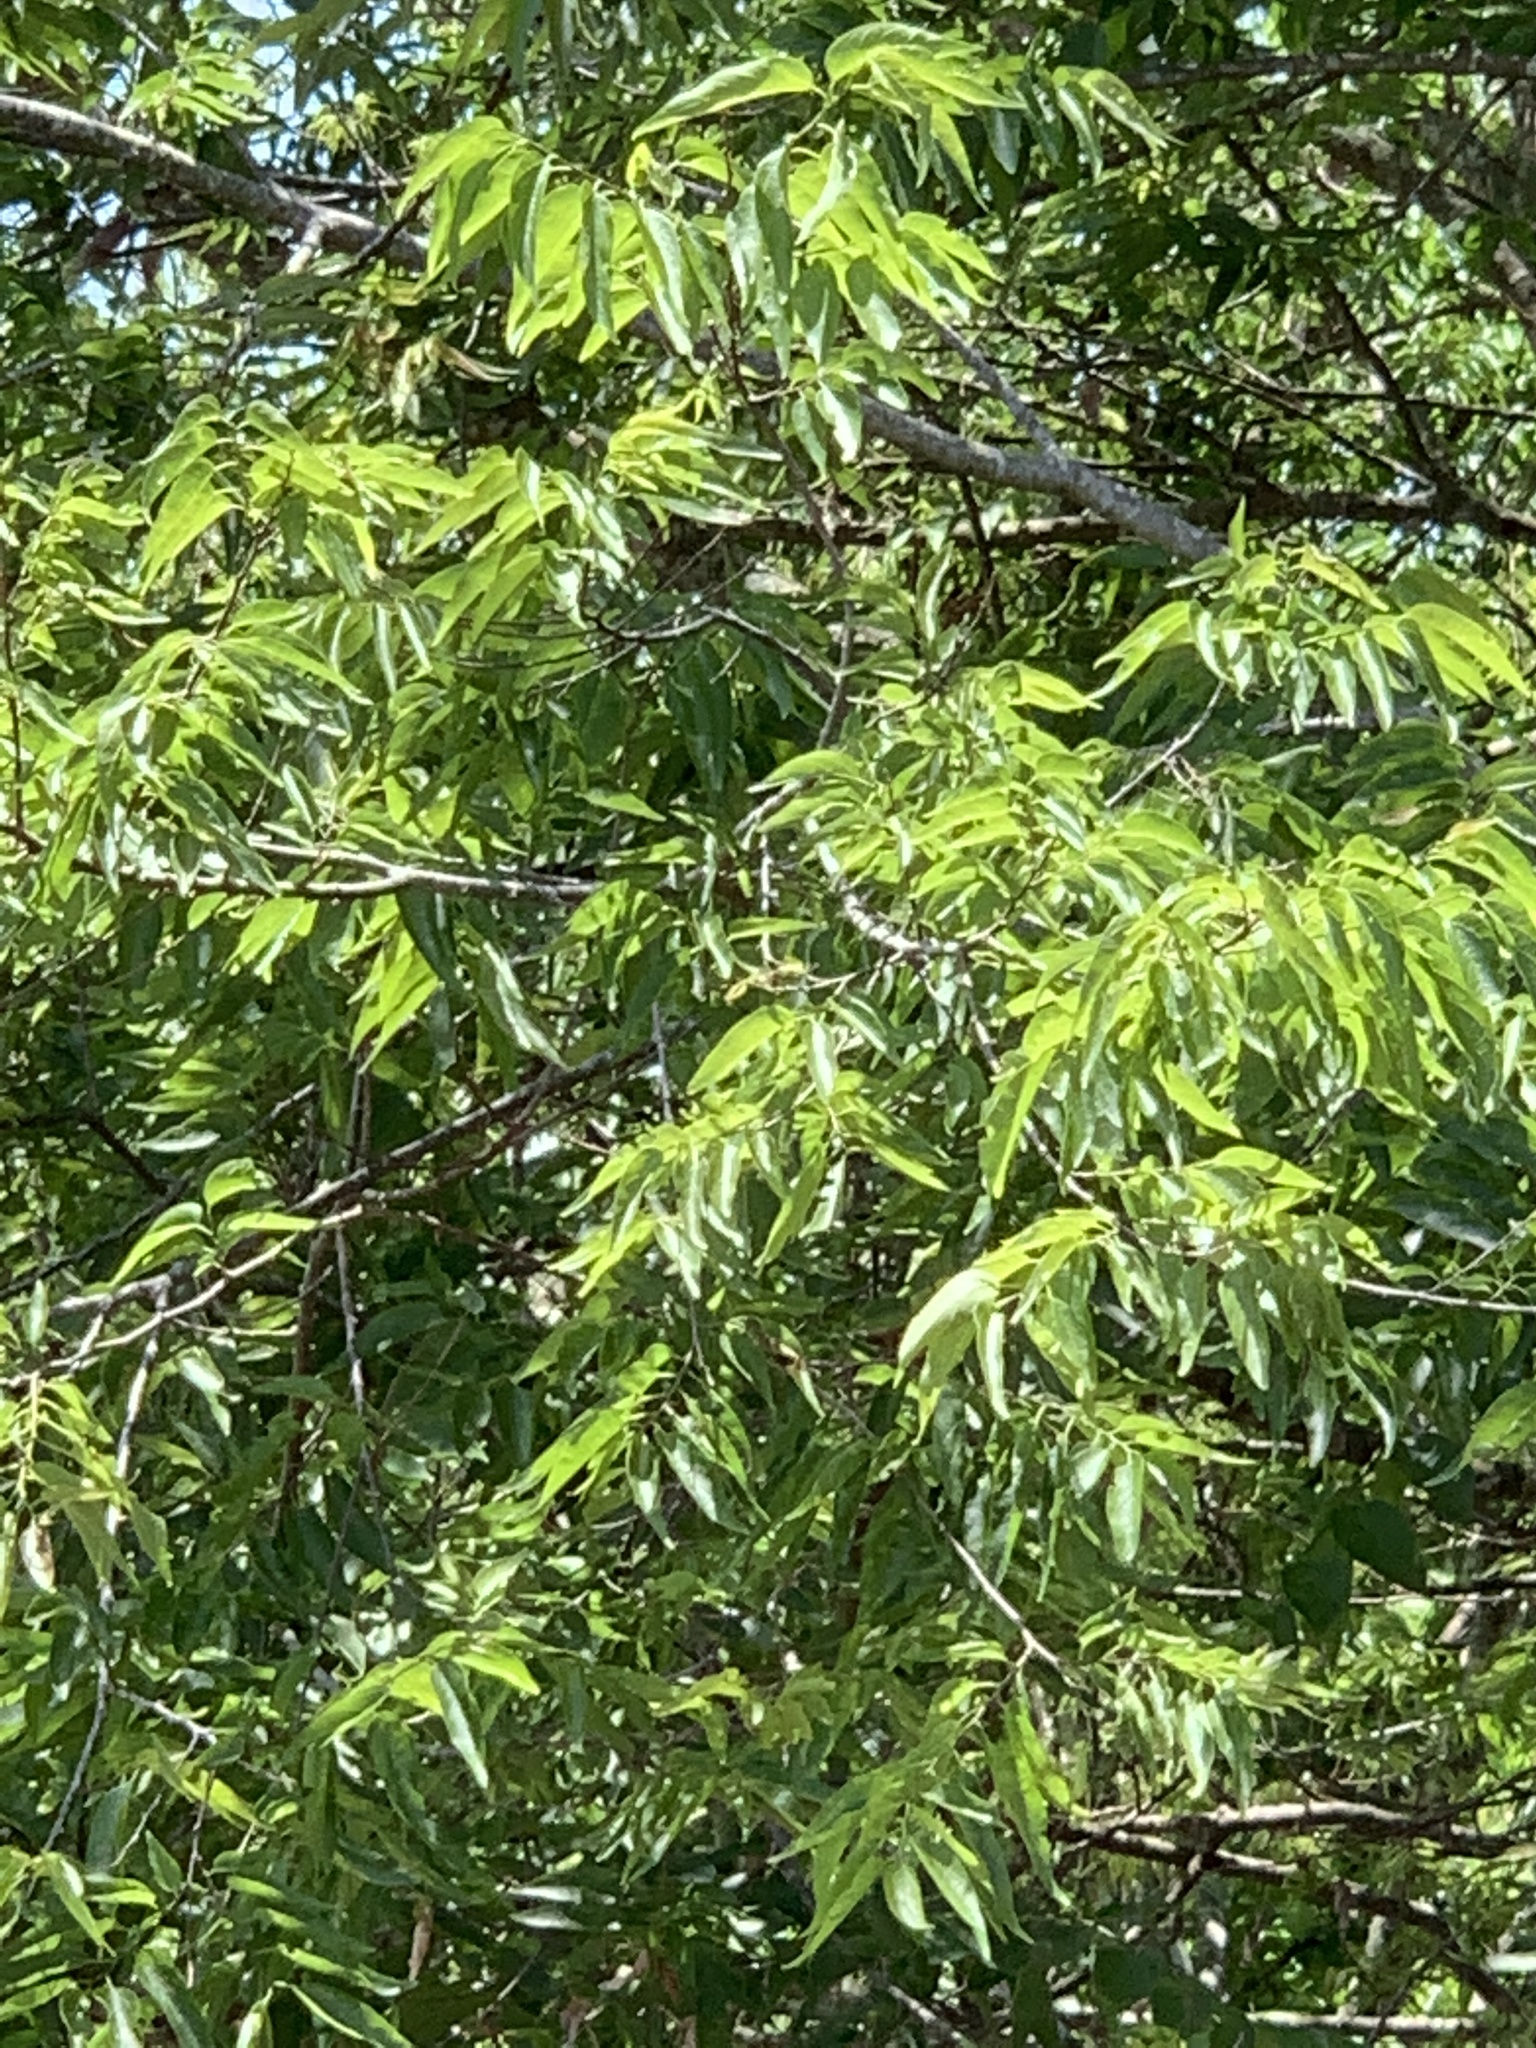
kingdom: Plantae
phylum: Tracheophyta
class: Magnoliopsida
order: Rosales
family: Cannabaceae
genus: Celtis
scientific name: Celtis laevigata
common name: Sugarberry
